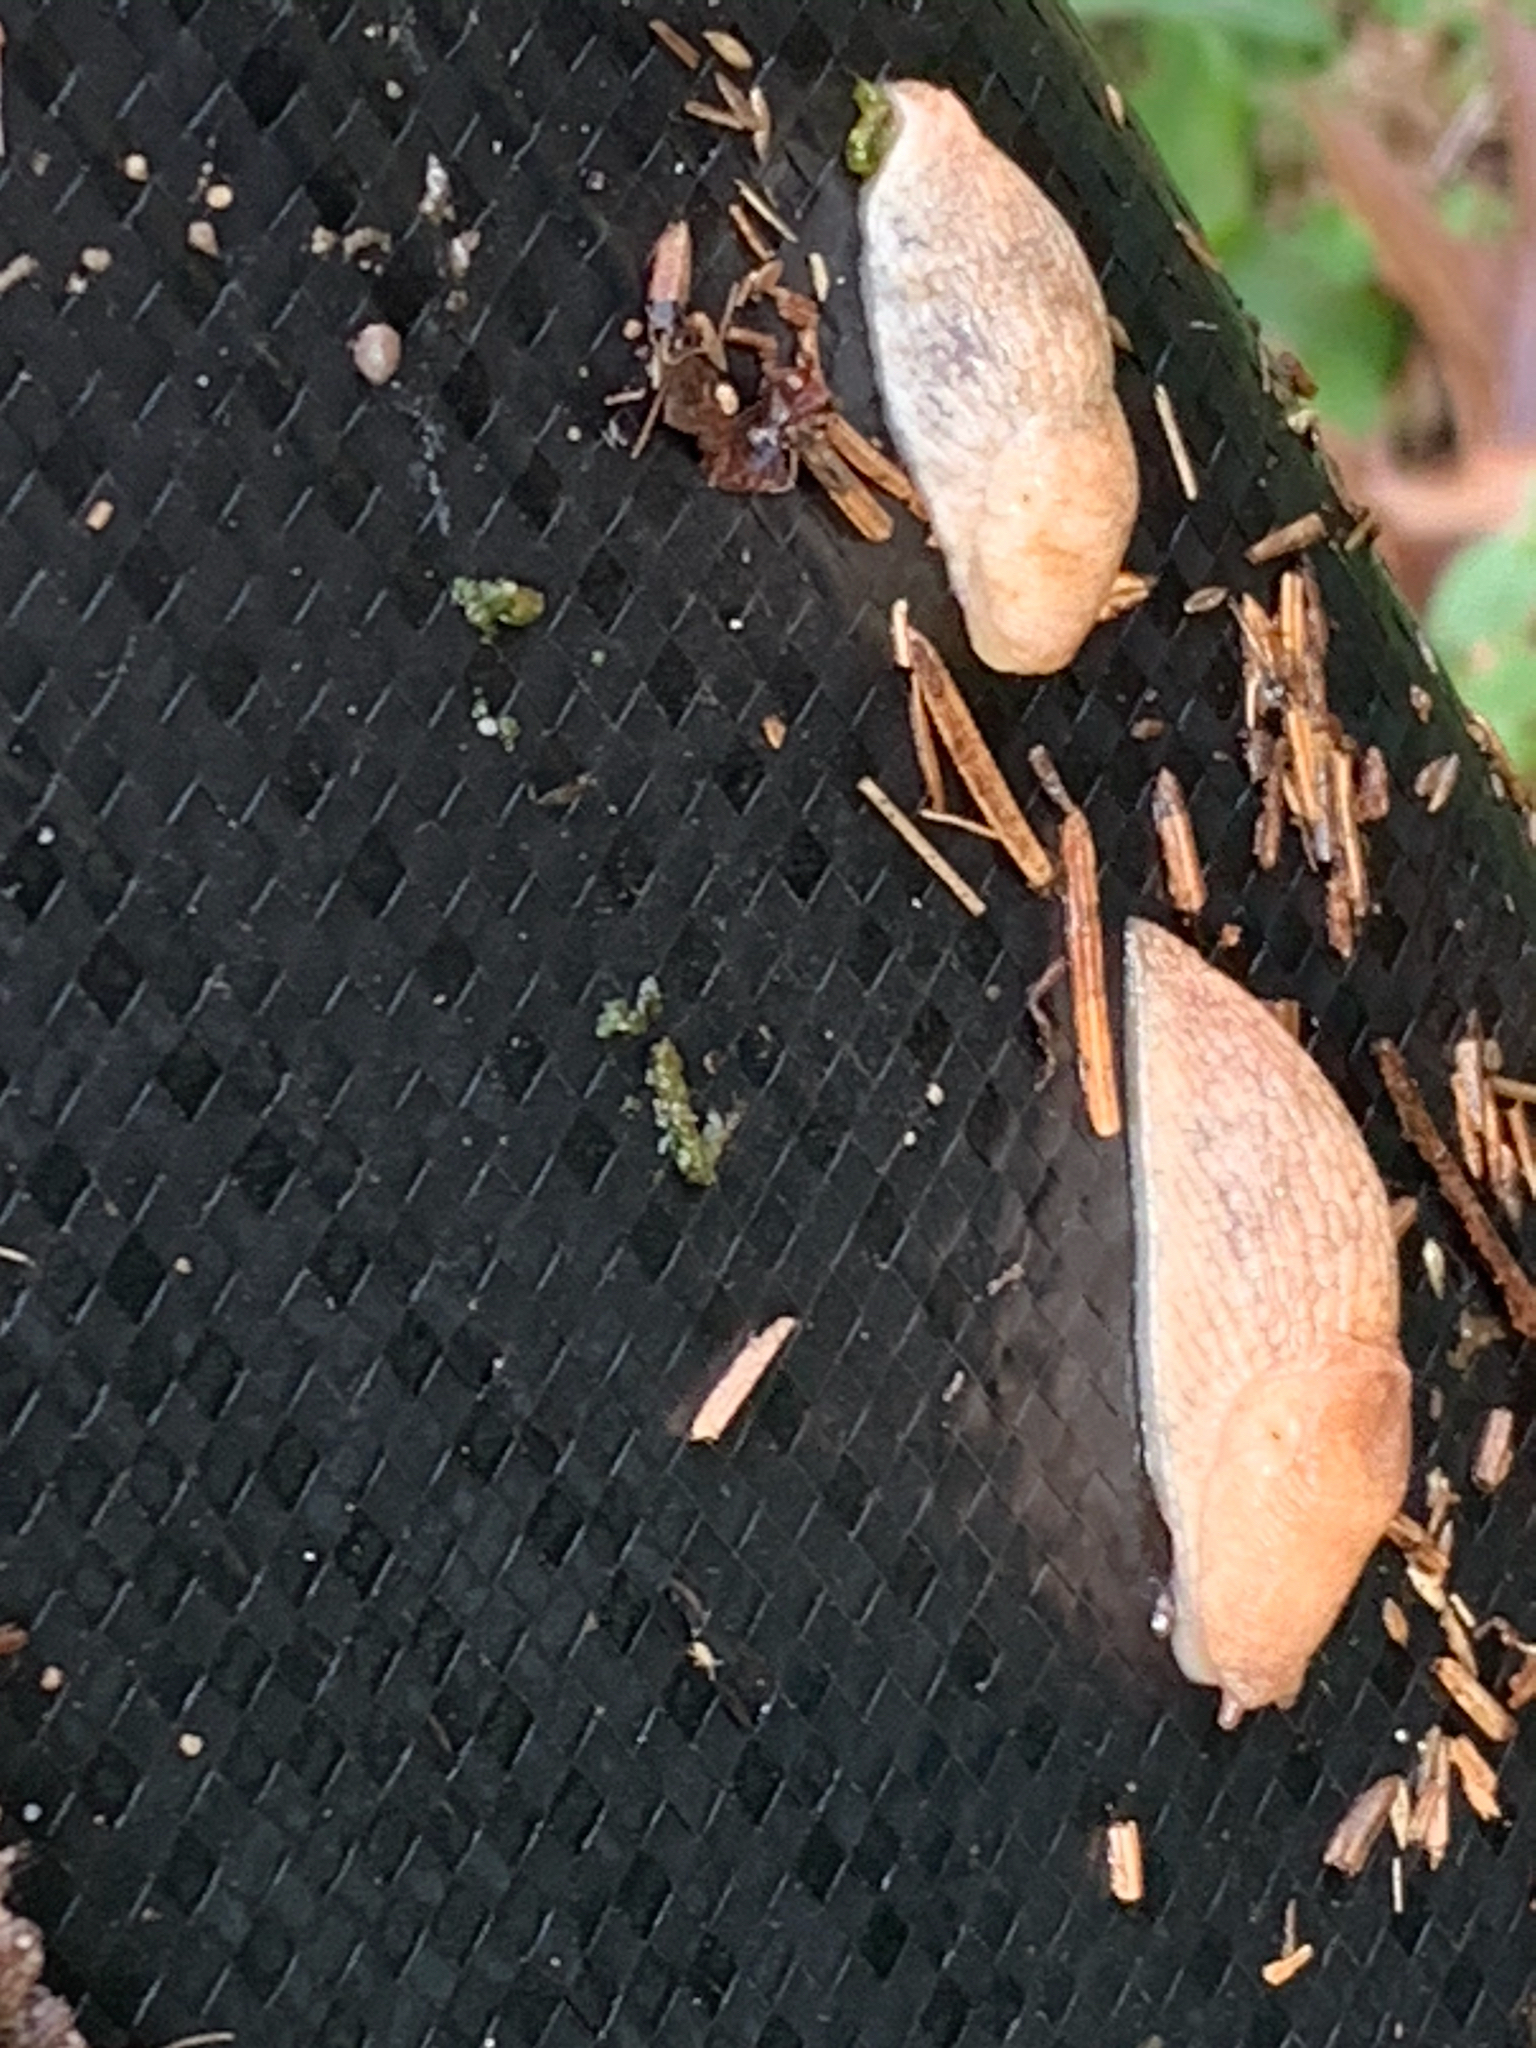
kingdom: Animalia
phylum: Mollusca
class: Gastropoda
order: Stylommatophora
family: Agriolimacidae
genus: Deroceras
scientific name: Deroceras reticulatum
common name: Gray field slug
